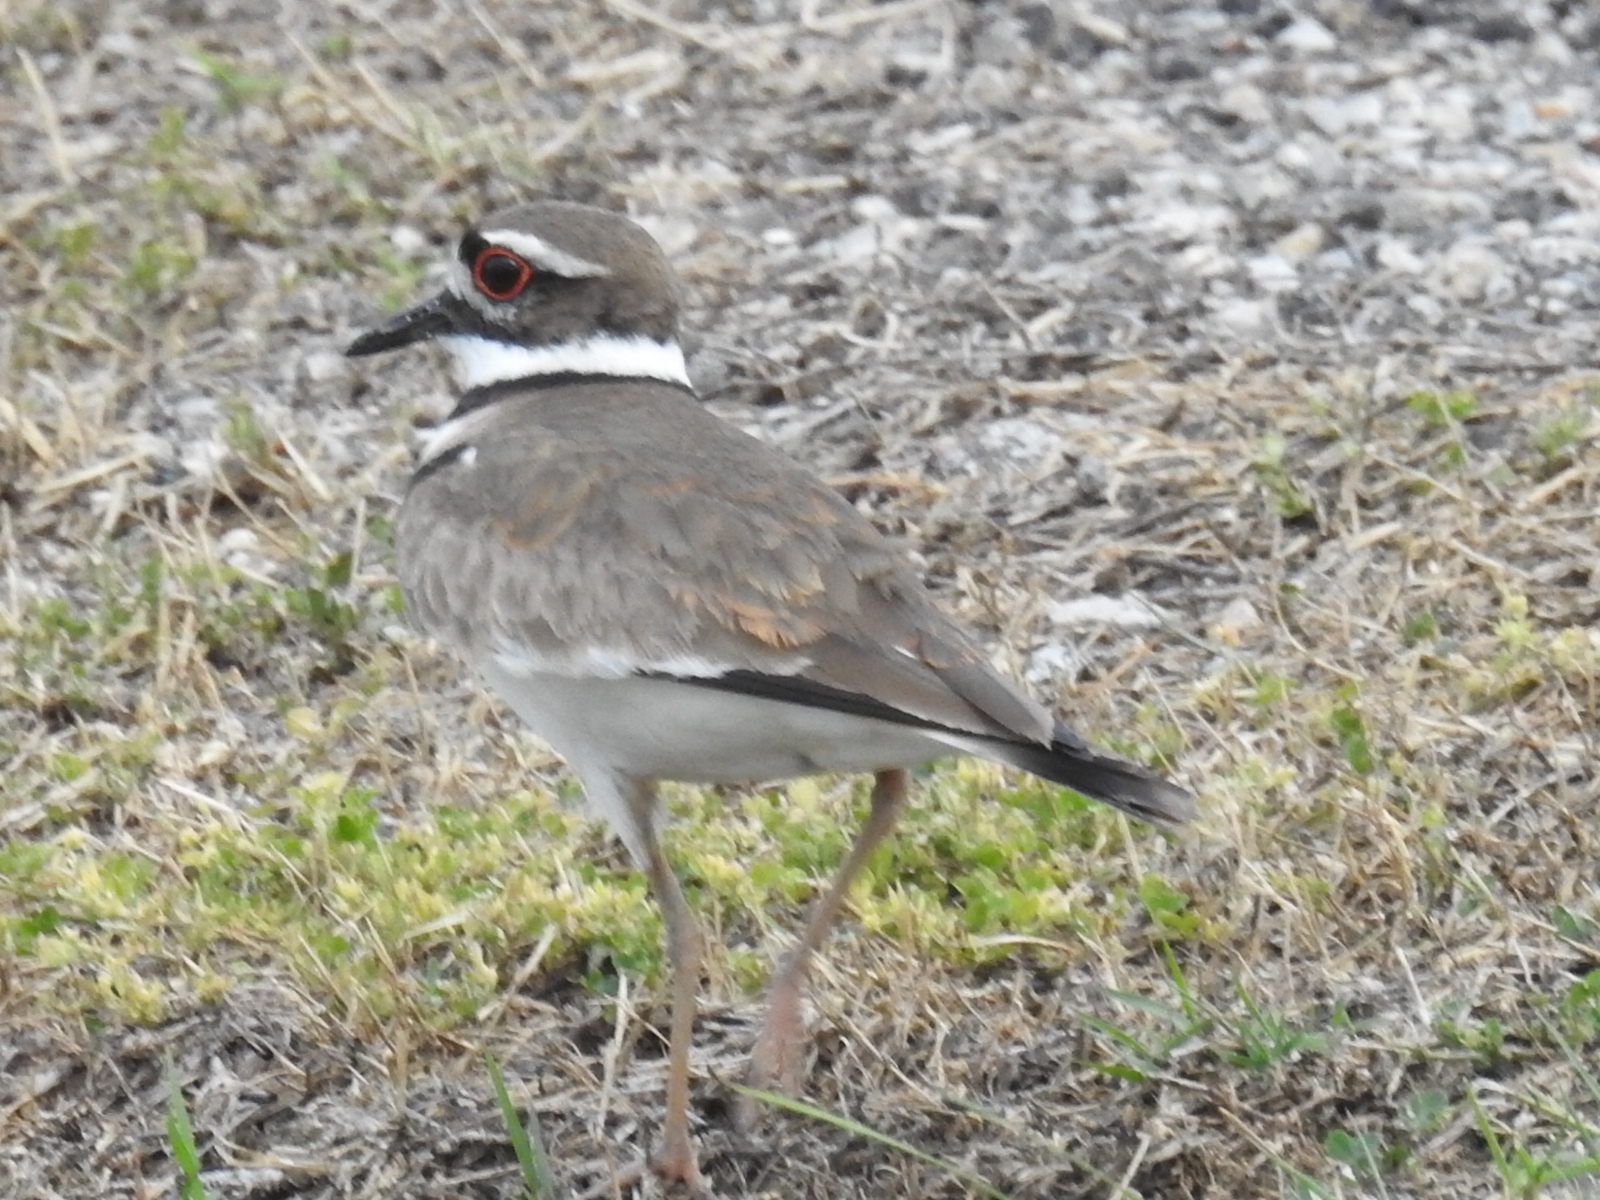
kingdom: Animalia
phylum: Chordata
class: Aves
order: Charadriiformes
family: Charadriidae
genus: Charadrius
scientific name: Charadrius vociferus
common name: Killdeer
